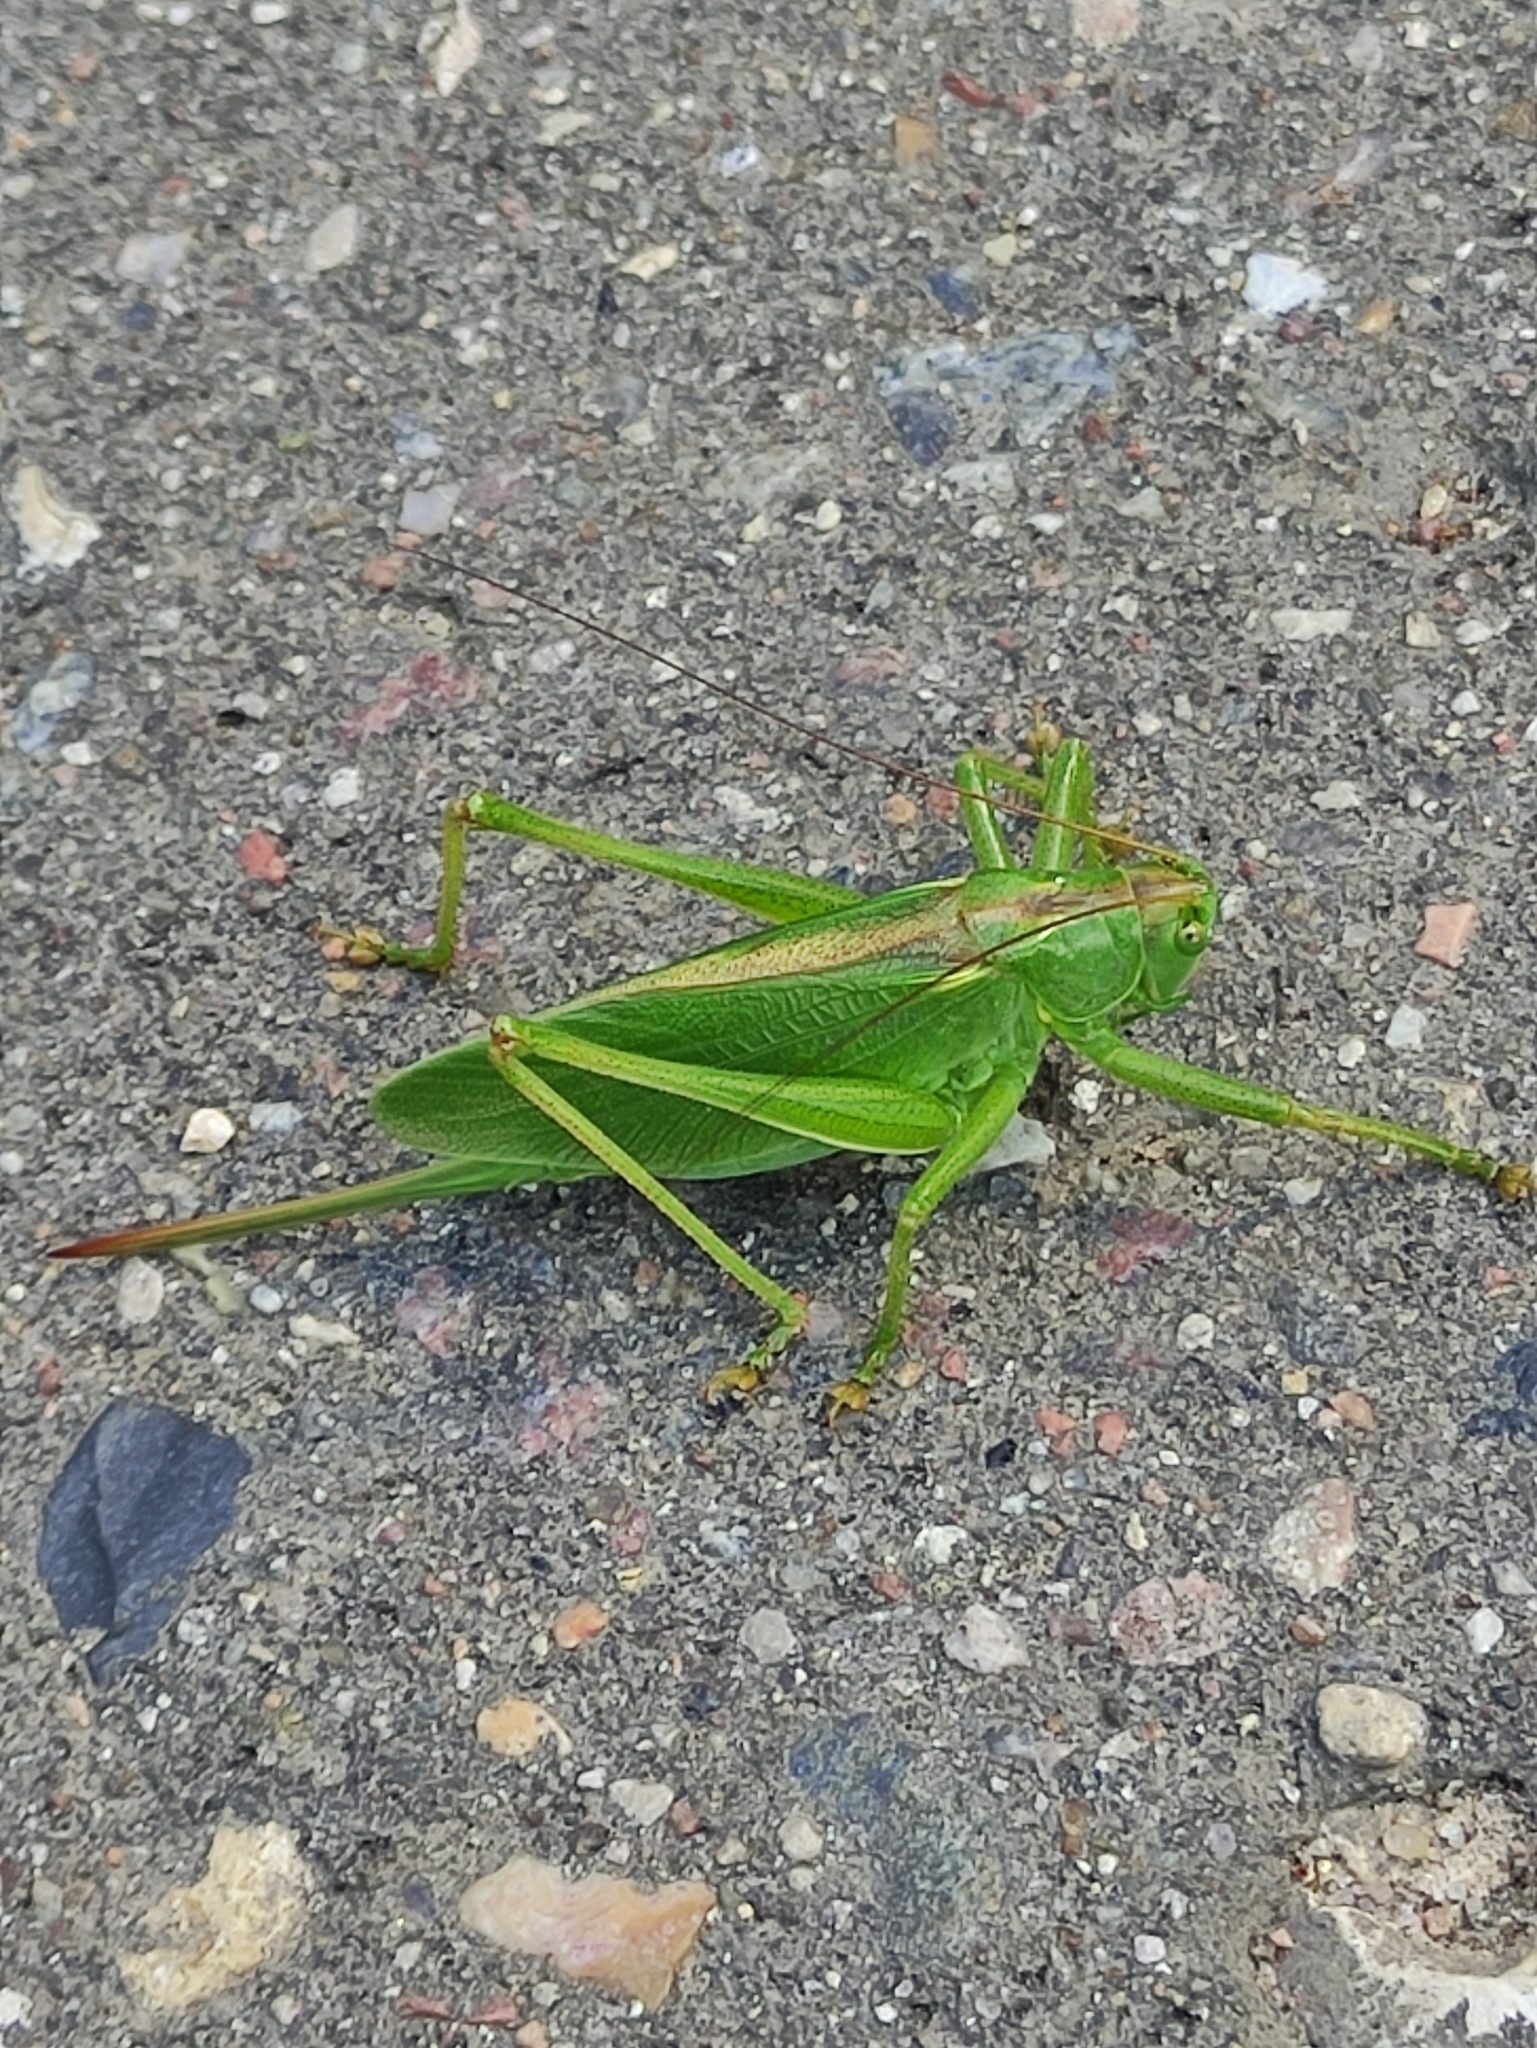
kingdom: Animalia
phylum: Arthropoda
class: Insecta
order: Orthoptera
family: Tettigoniidae
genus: Tettigonia
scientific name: Tettigonia cantans
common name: Upland green bush-cricket
